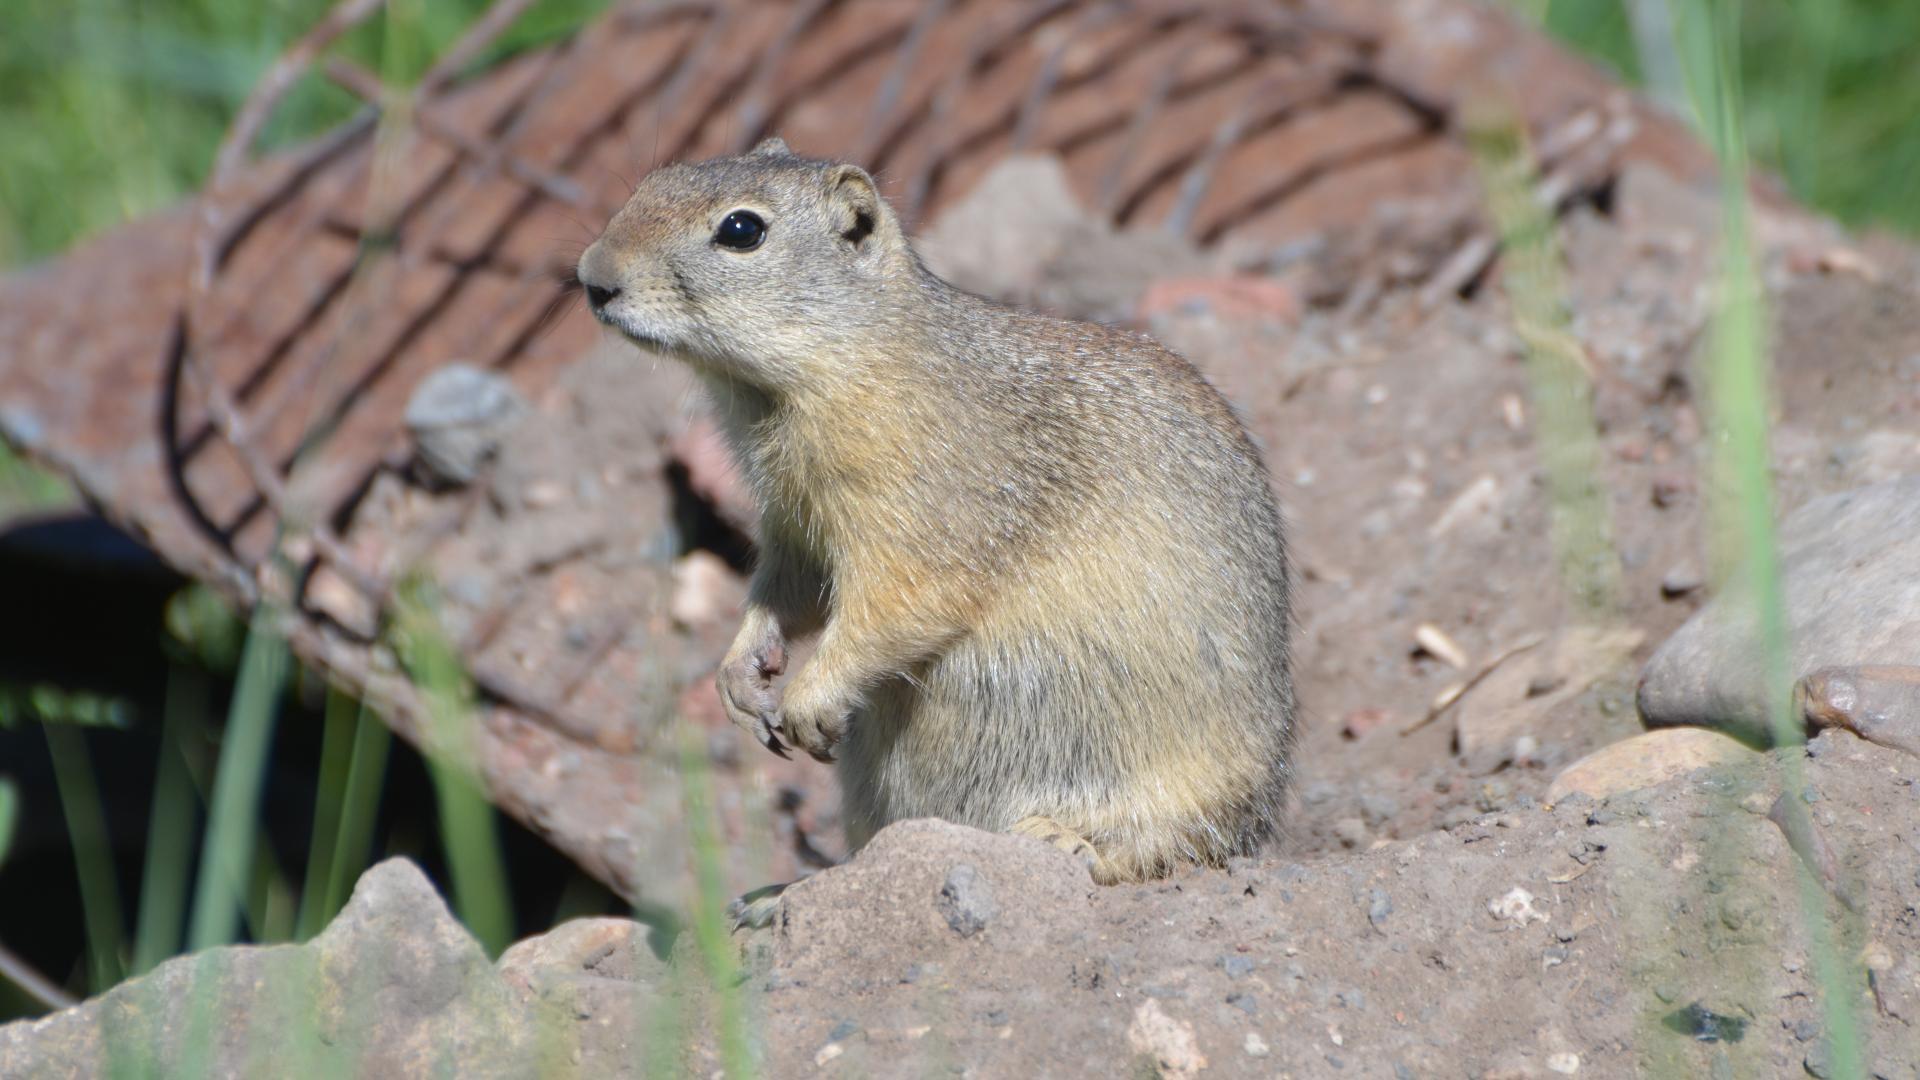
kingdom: Animalia
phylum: Chordata
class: Mammalia
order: Rodentia
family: Sciuridae
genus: Urocitellus
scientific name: Urocitellus beldingi
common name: Belding's ground squirrel
